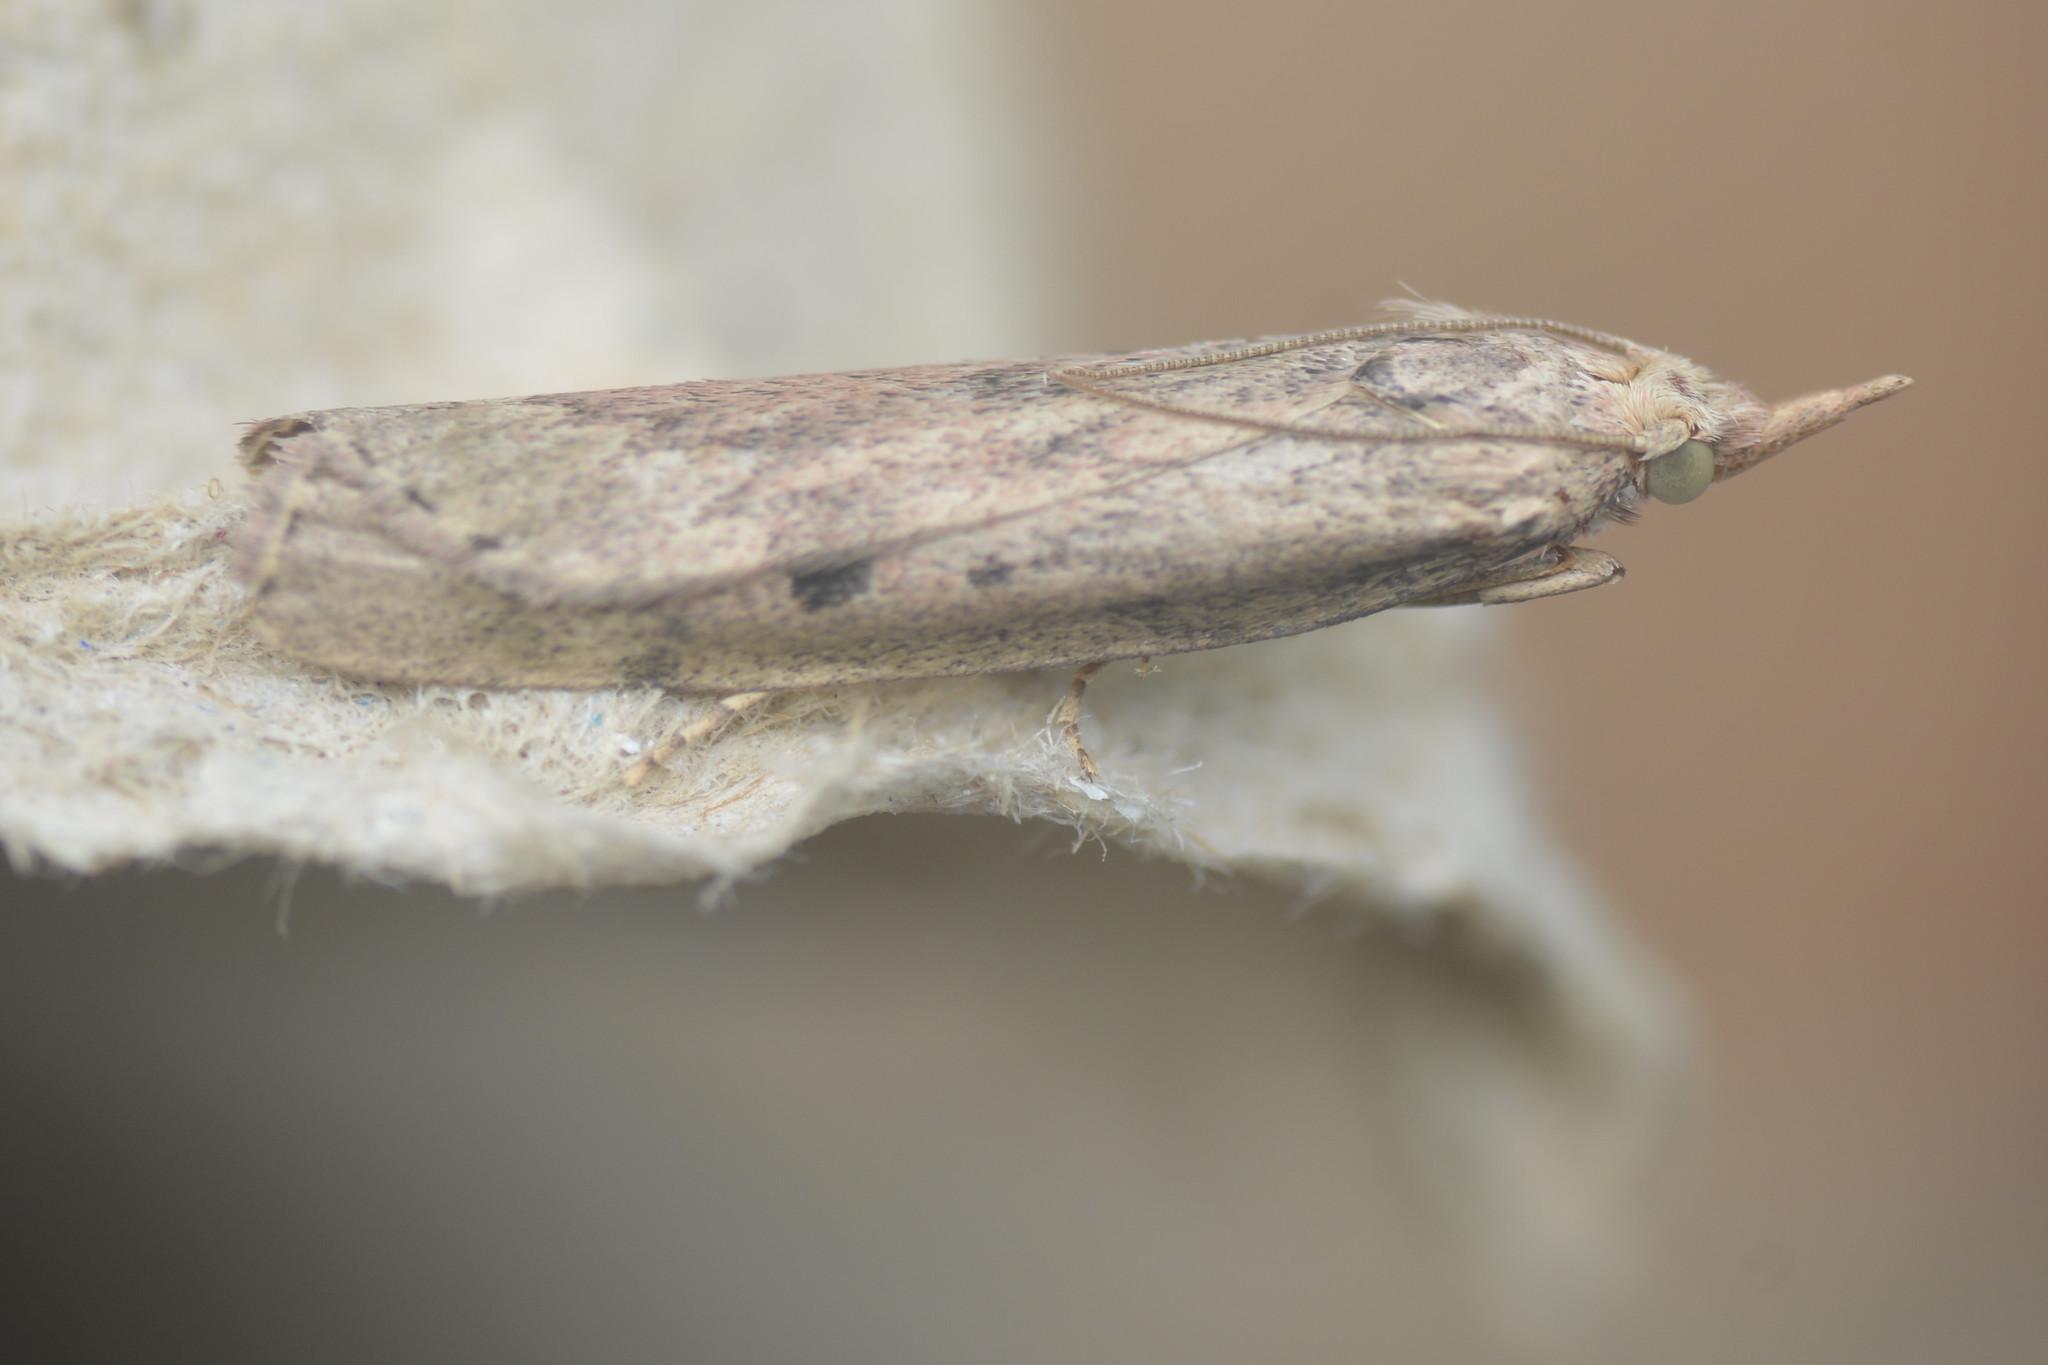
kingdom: Animalia
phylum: Arthropoda
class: Insecta
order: Lepidoptera
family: Pyralidae
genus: Aphomia
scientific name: Aphomia sociella
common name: Bee moth
